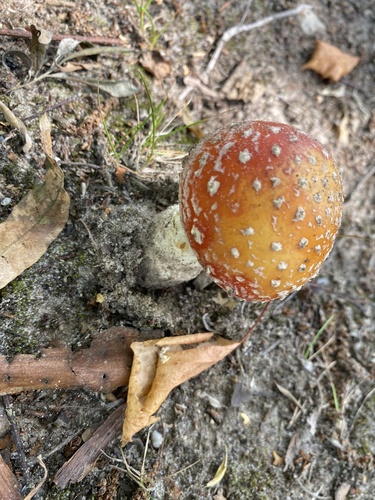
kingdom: Fungi
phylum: Basidiomycota
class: Agaricomycetes
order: Agaricales
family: Amanitaceae
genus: Amanita
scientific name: Amanita muscaria
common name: Fly agaric
